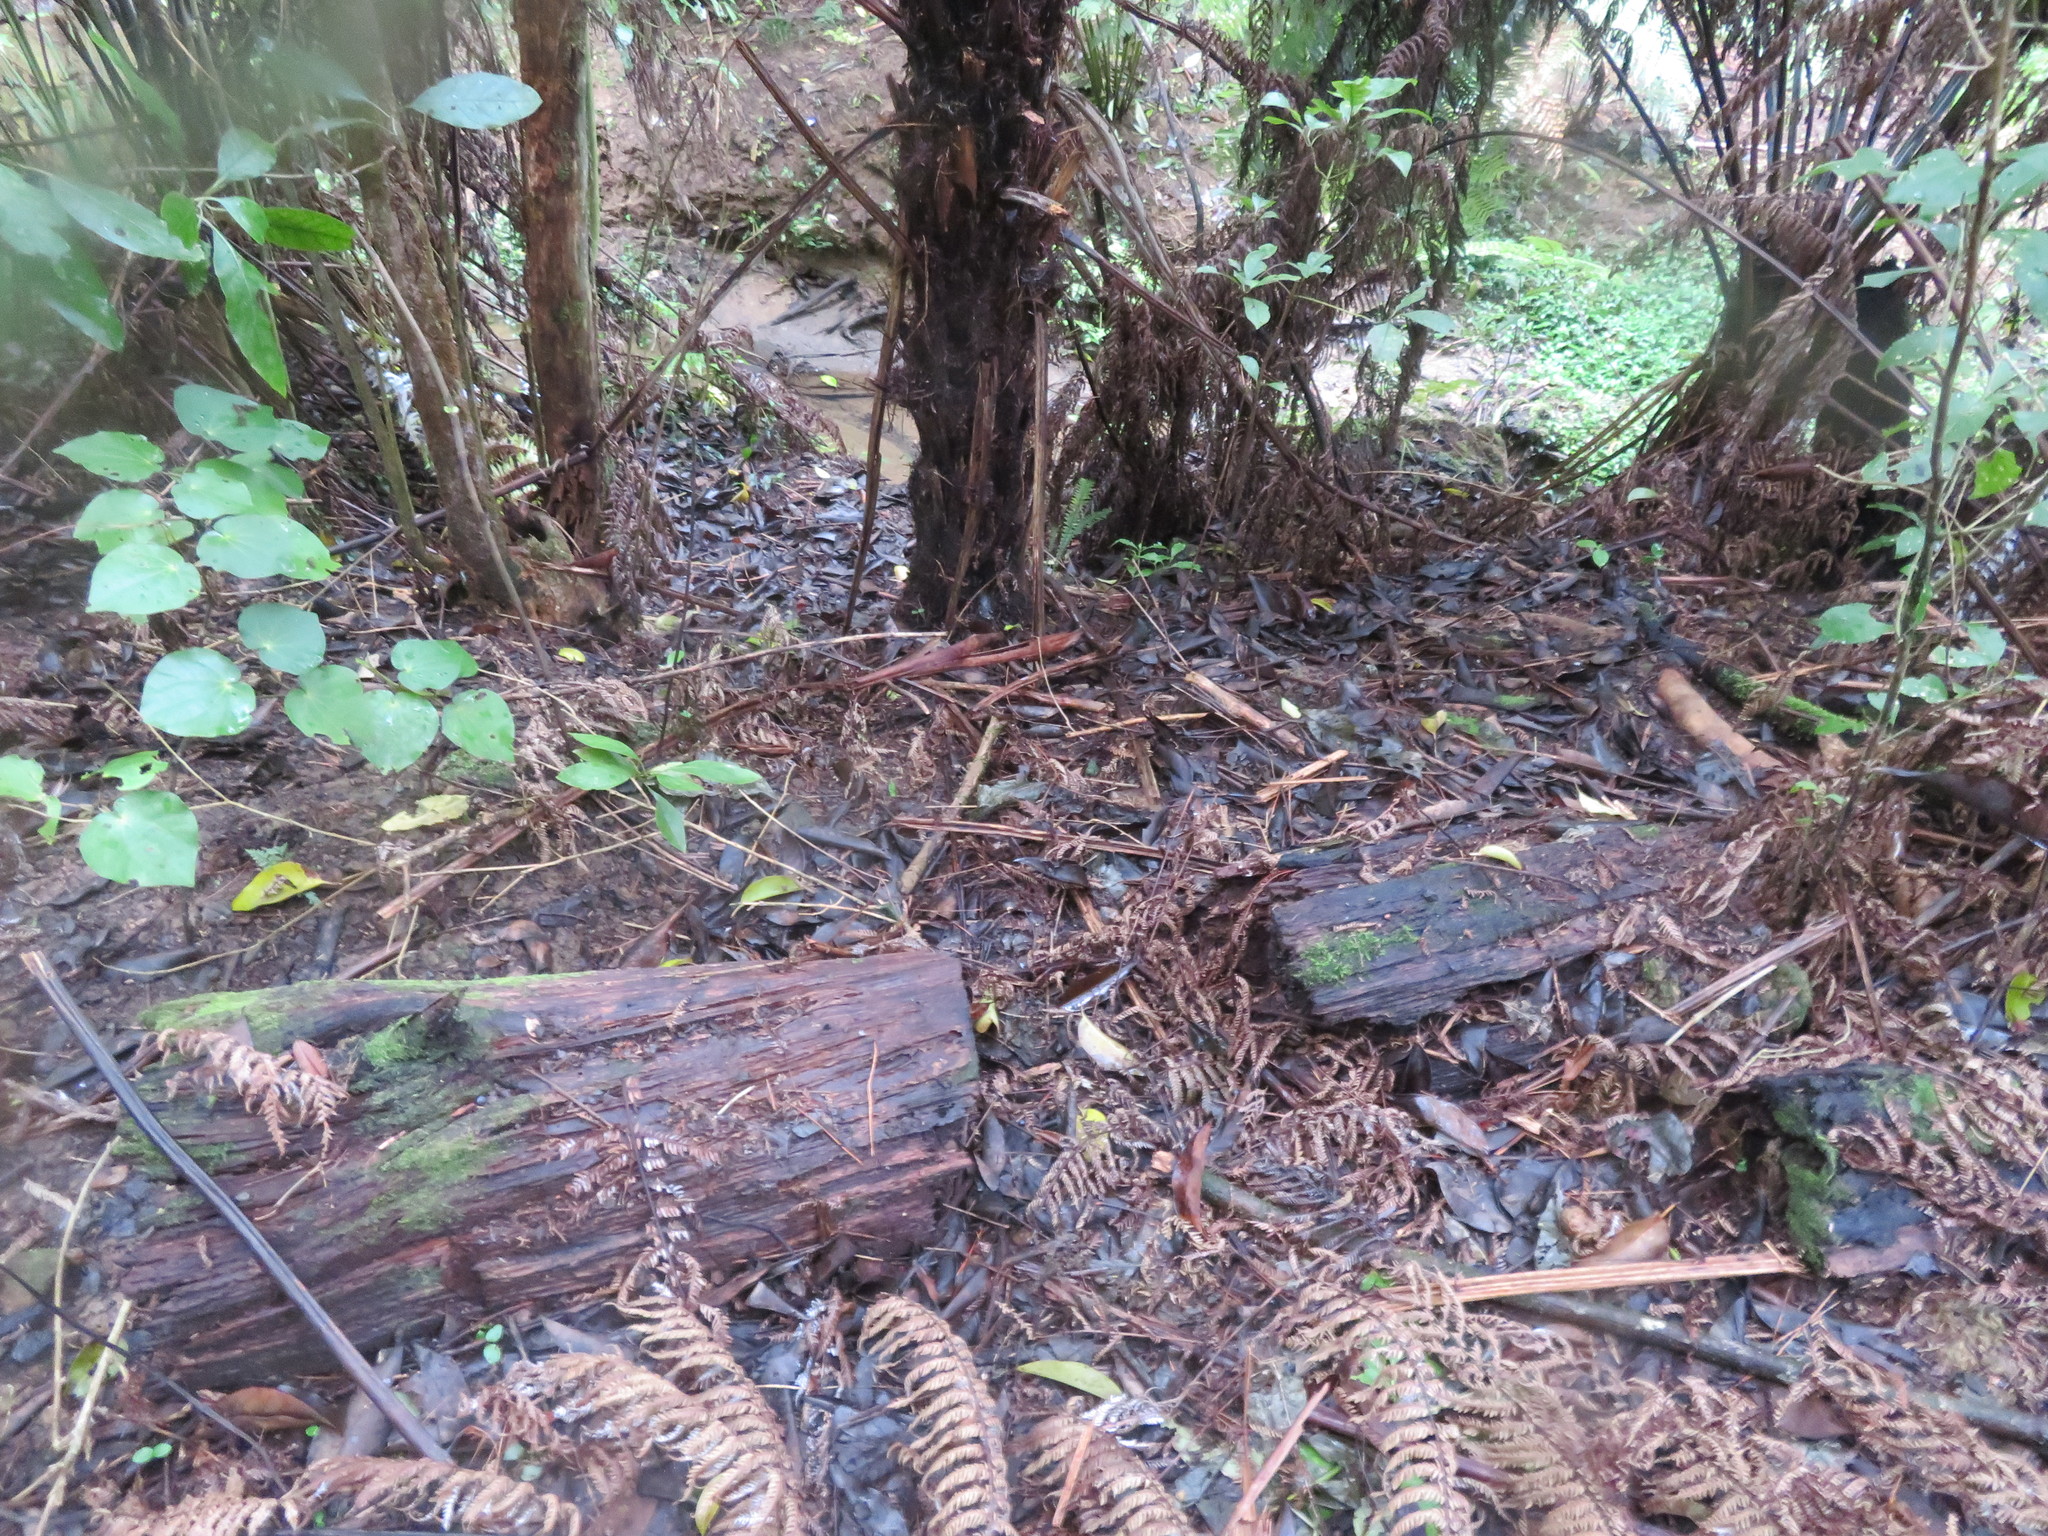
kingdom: Plantae
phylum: Tracheophyta
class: Magnoliopsida
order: Piperales
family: Piperaceae
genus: Macropiper
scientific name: Macropiper excelsum
